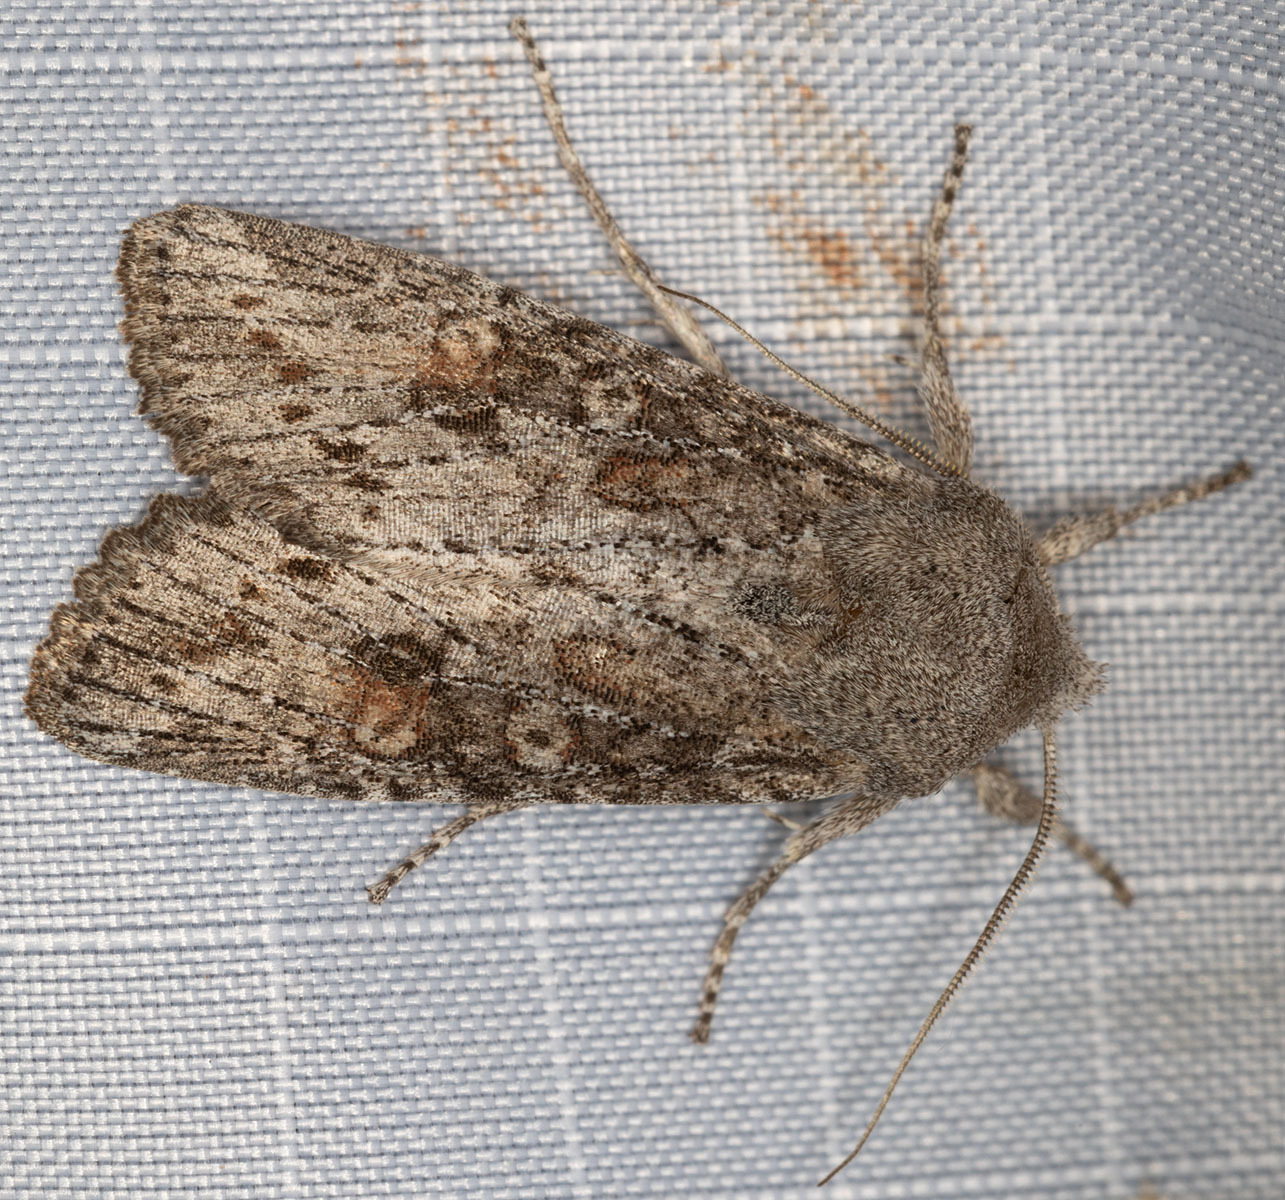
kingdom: Animalia
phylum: Arthropoda
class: Insecta
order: Lepidoptera
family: Noctuidae
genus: Egira
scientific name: Egira curialis
